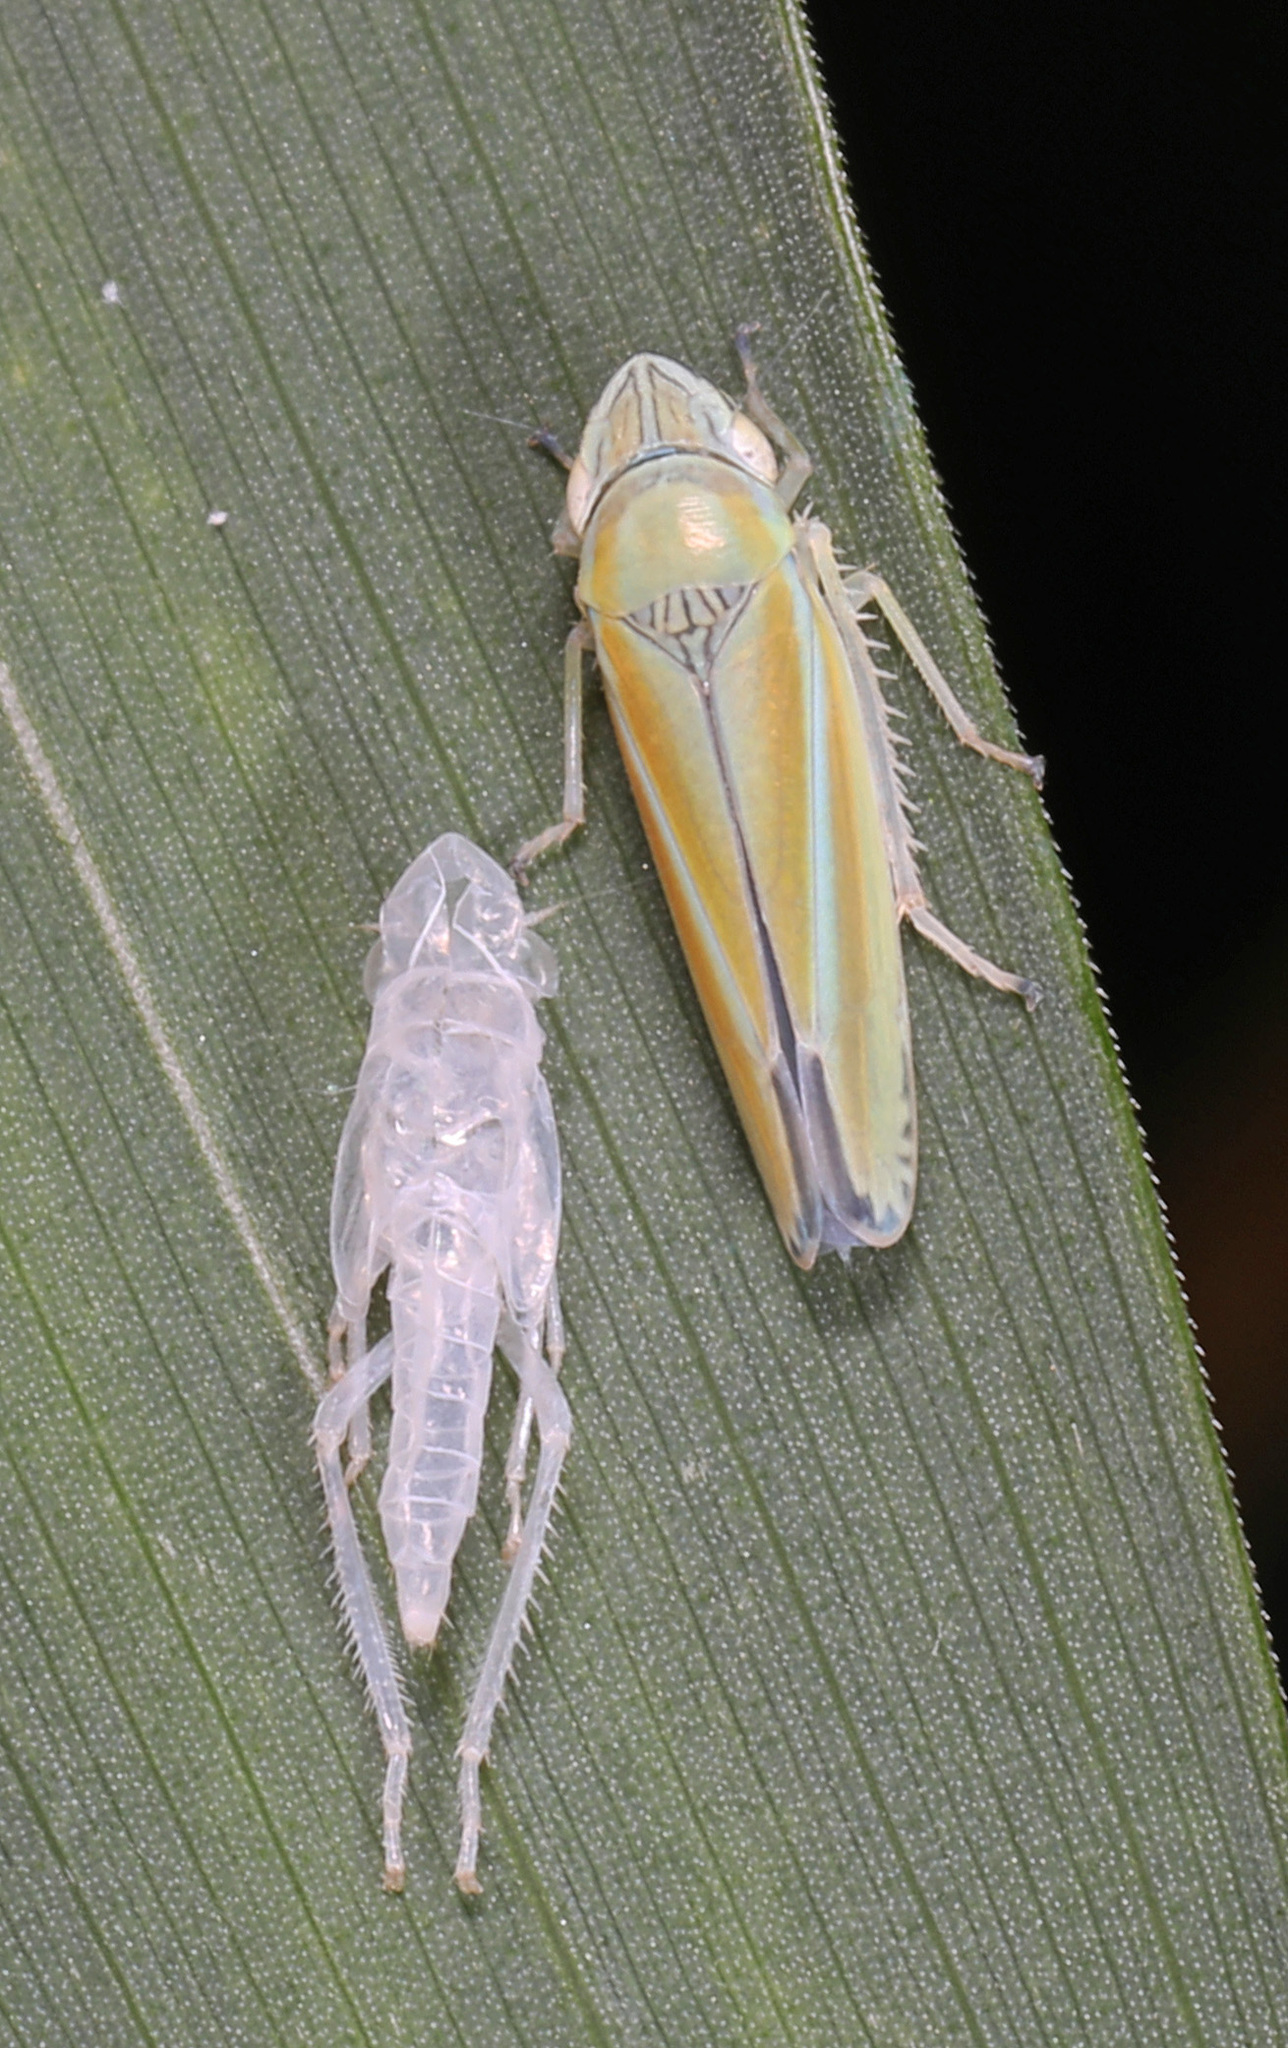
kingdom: Animalia
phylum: Arthropoda
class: Insecta
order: Hemiptera
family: Cicadellidae
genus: Graphocephala
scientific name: Graphocephala versuta
